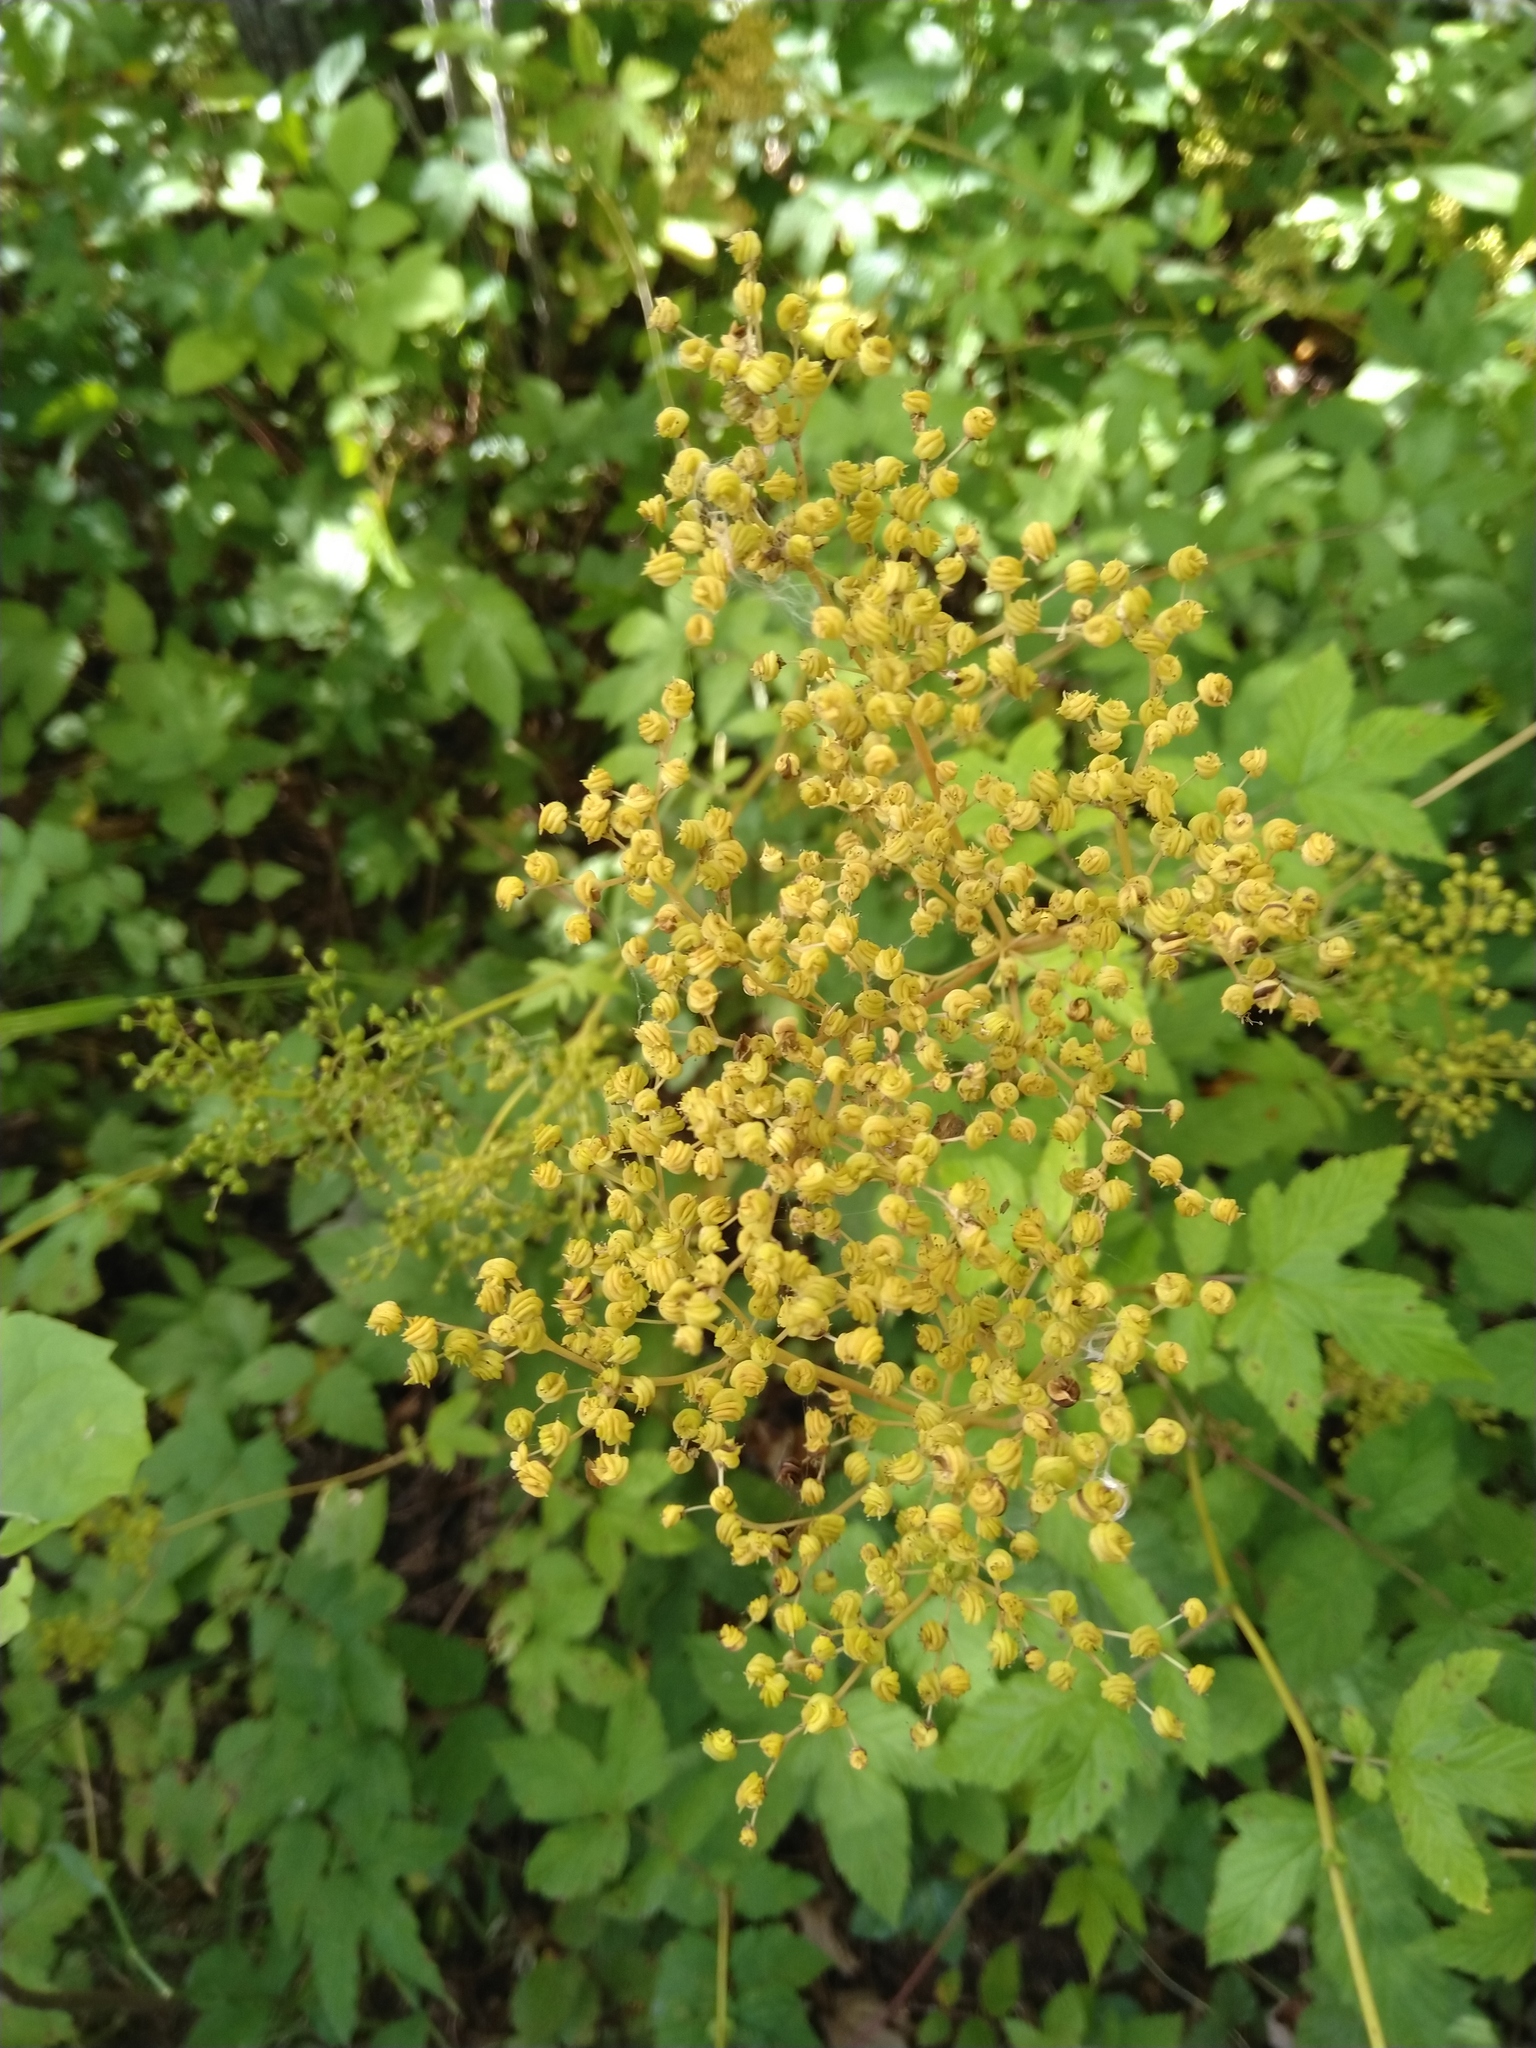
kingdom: Plantae
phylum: Tracheophyta
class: Magnoliopsida
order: Rosales
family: Rosaceae
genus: Filipendula
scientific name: Filipendula ulmaria
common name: Meadowsweet
